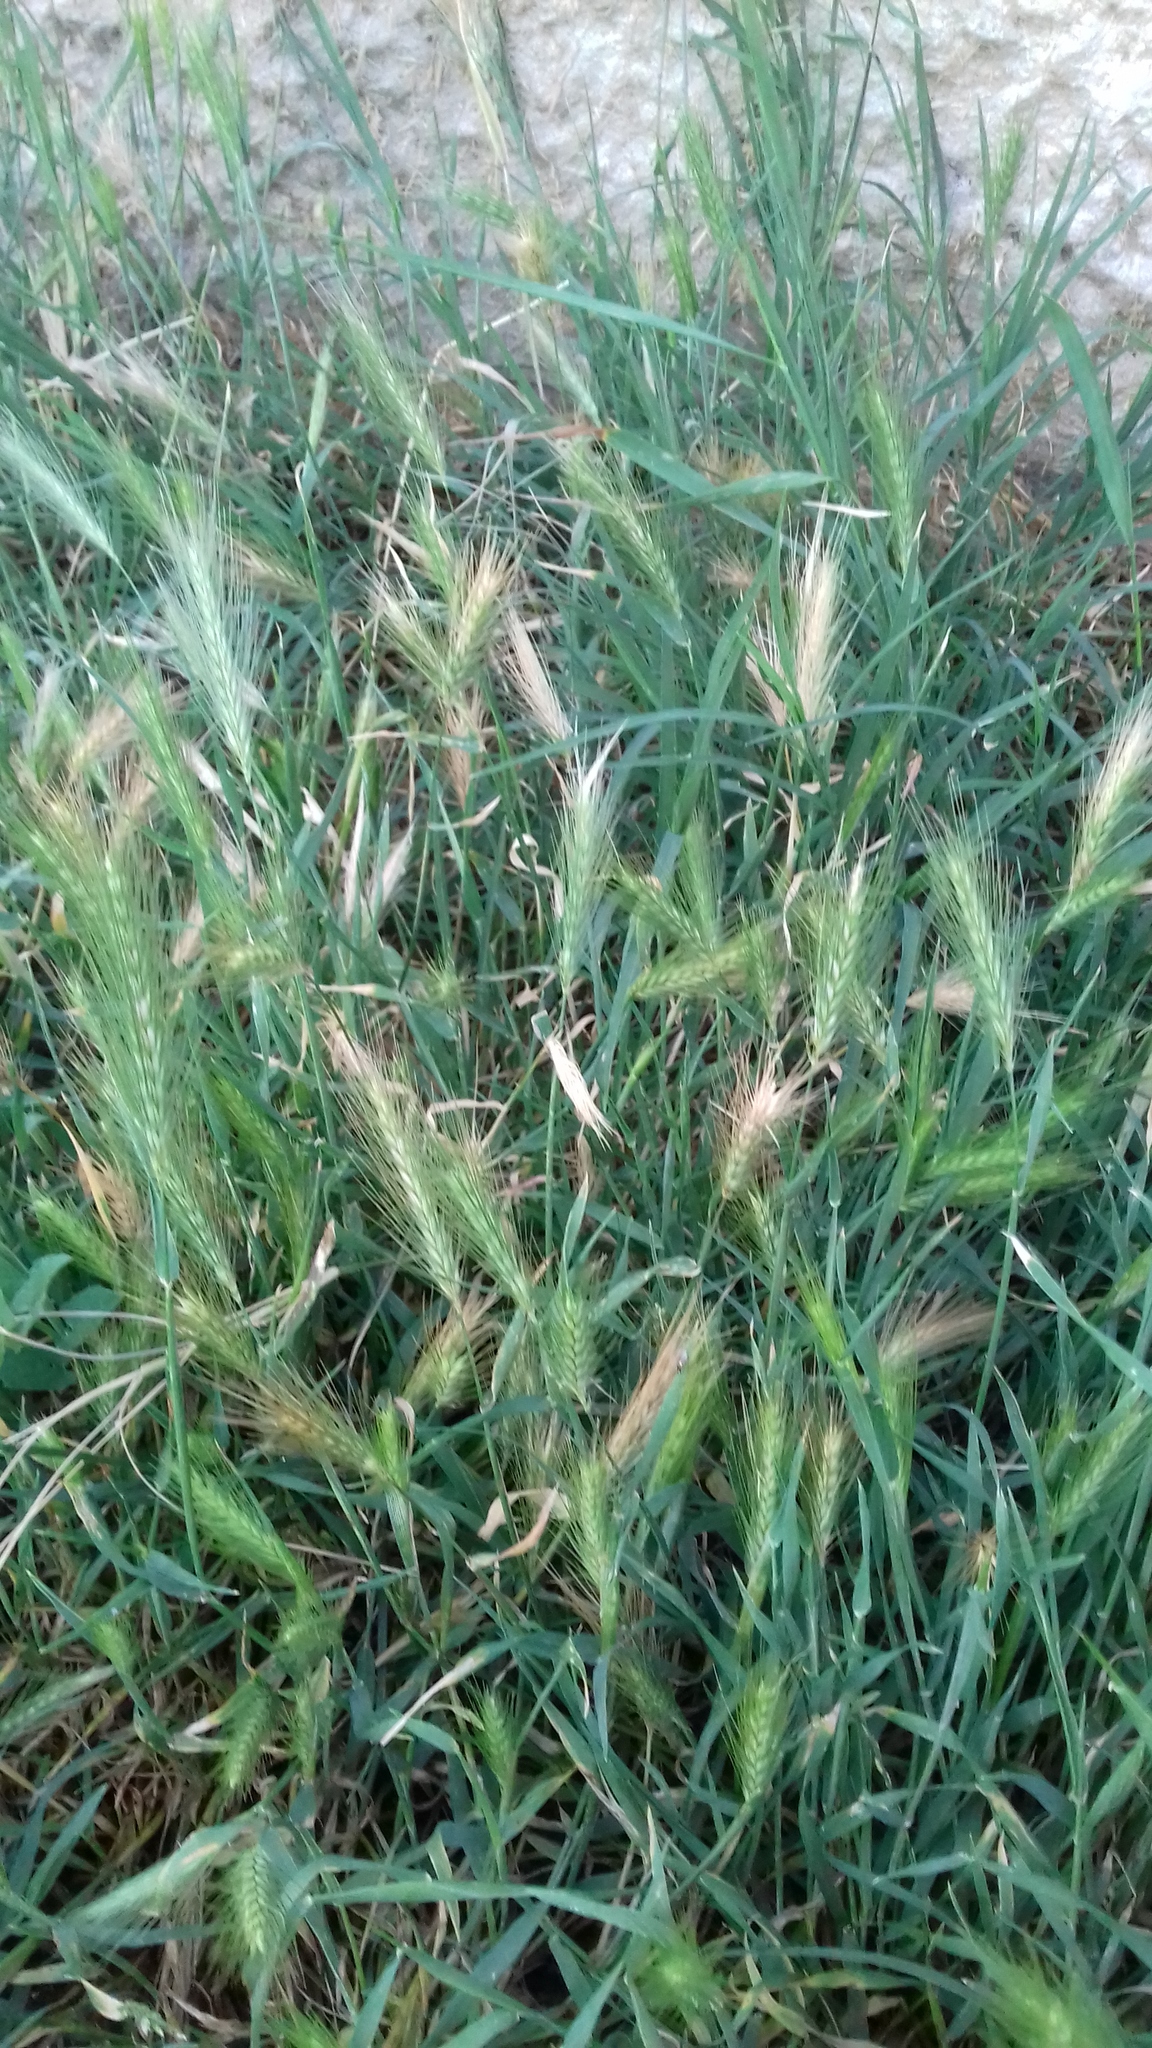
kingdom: Plantae
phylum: Tracheophyta
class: Liliopsida
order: Poales
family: Poaceae
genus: Hordeum
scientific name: Hordeum murinum
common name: Wall barley
